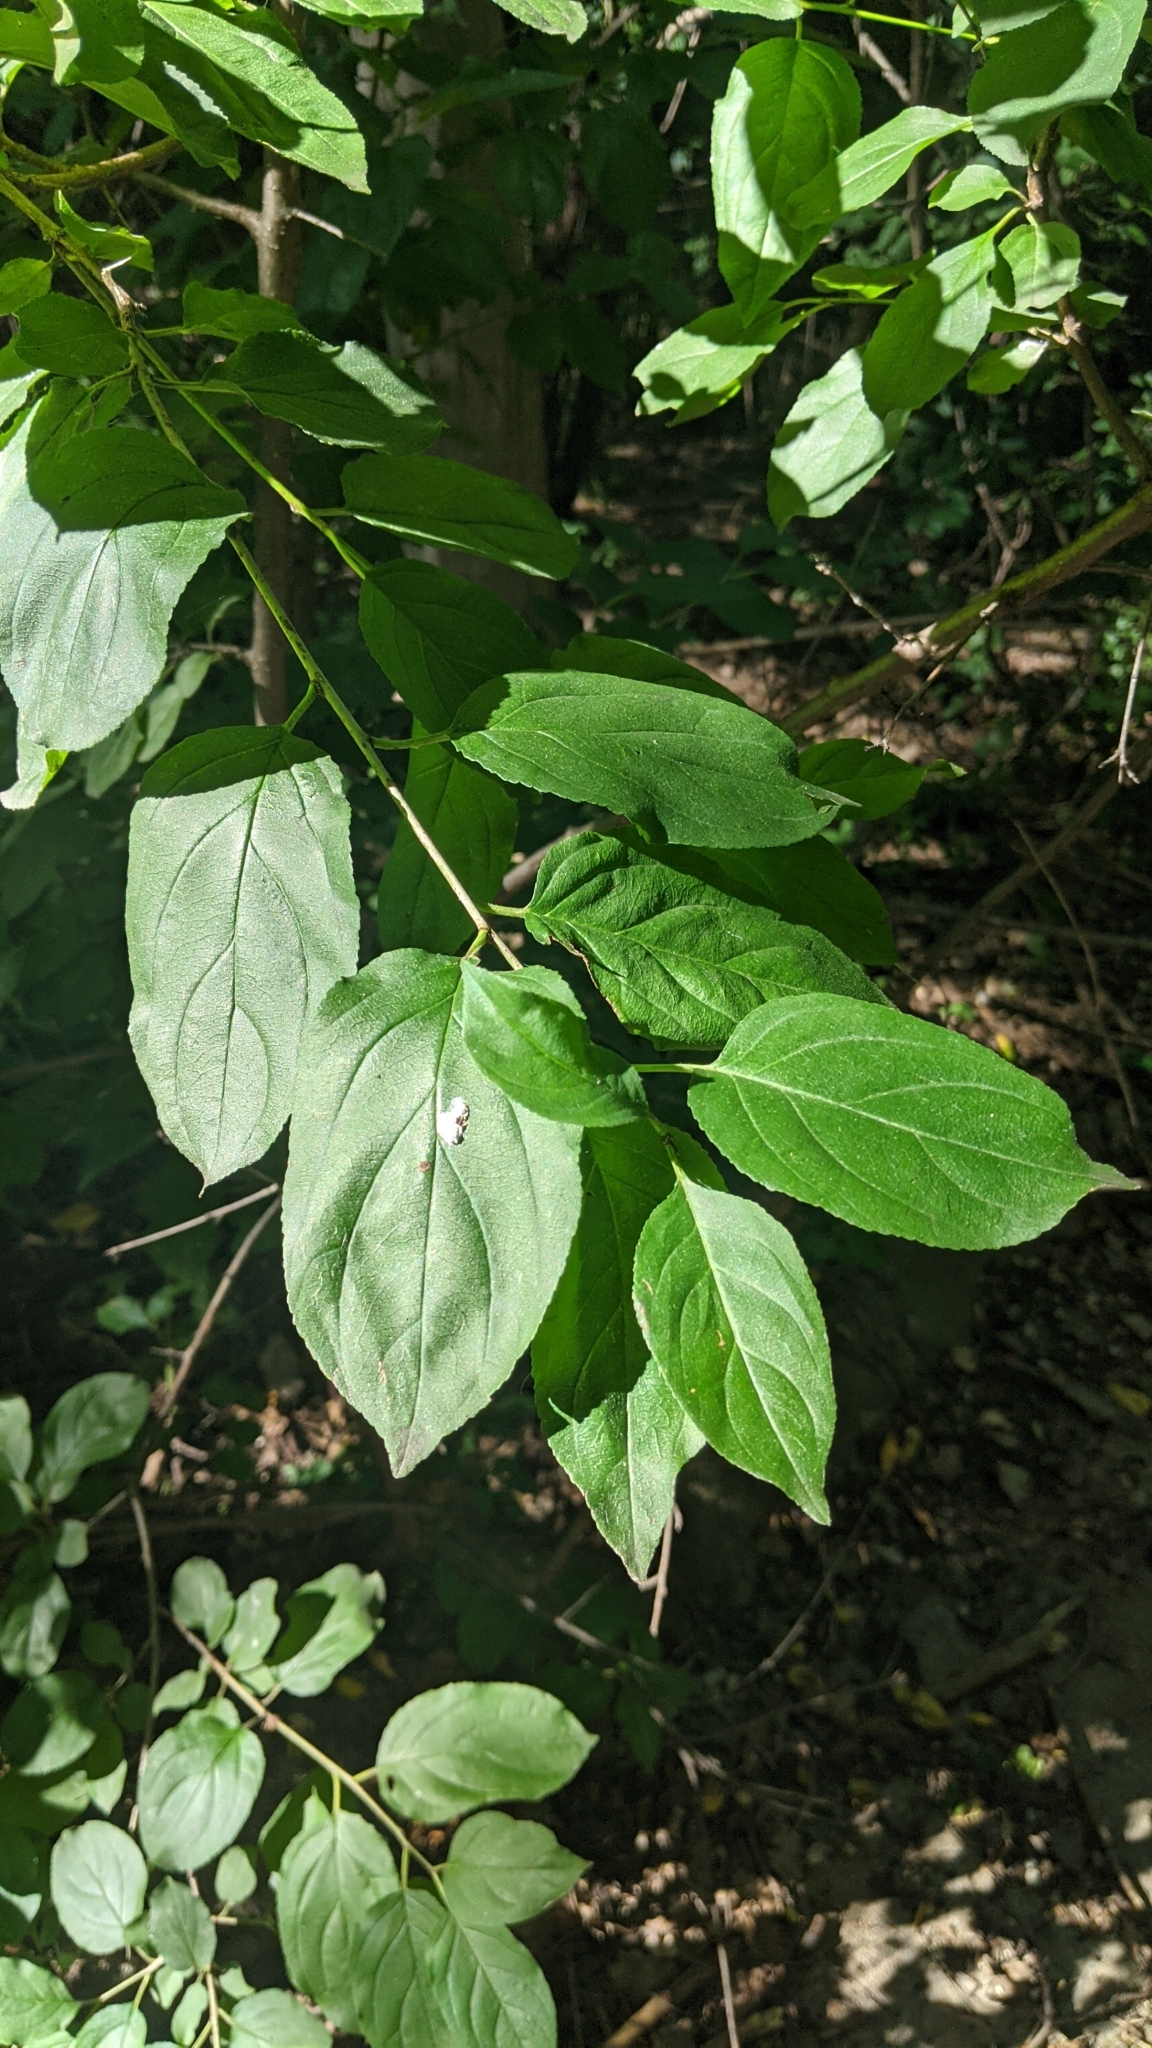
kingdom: Plantae
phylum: Tracheophyta
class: Magnoliopsida
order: Rosales
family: Rhamnaceae
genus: Rhamnus
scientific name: Rhamnus cathartica
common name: Common buckthorn
